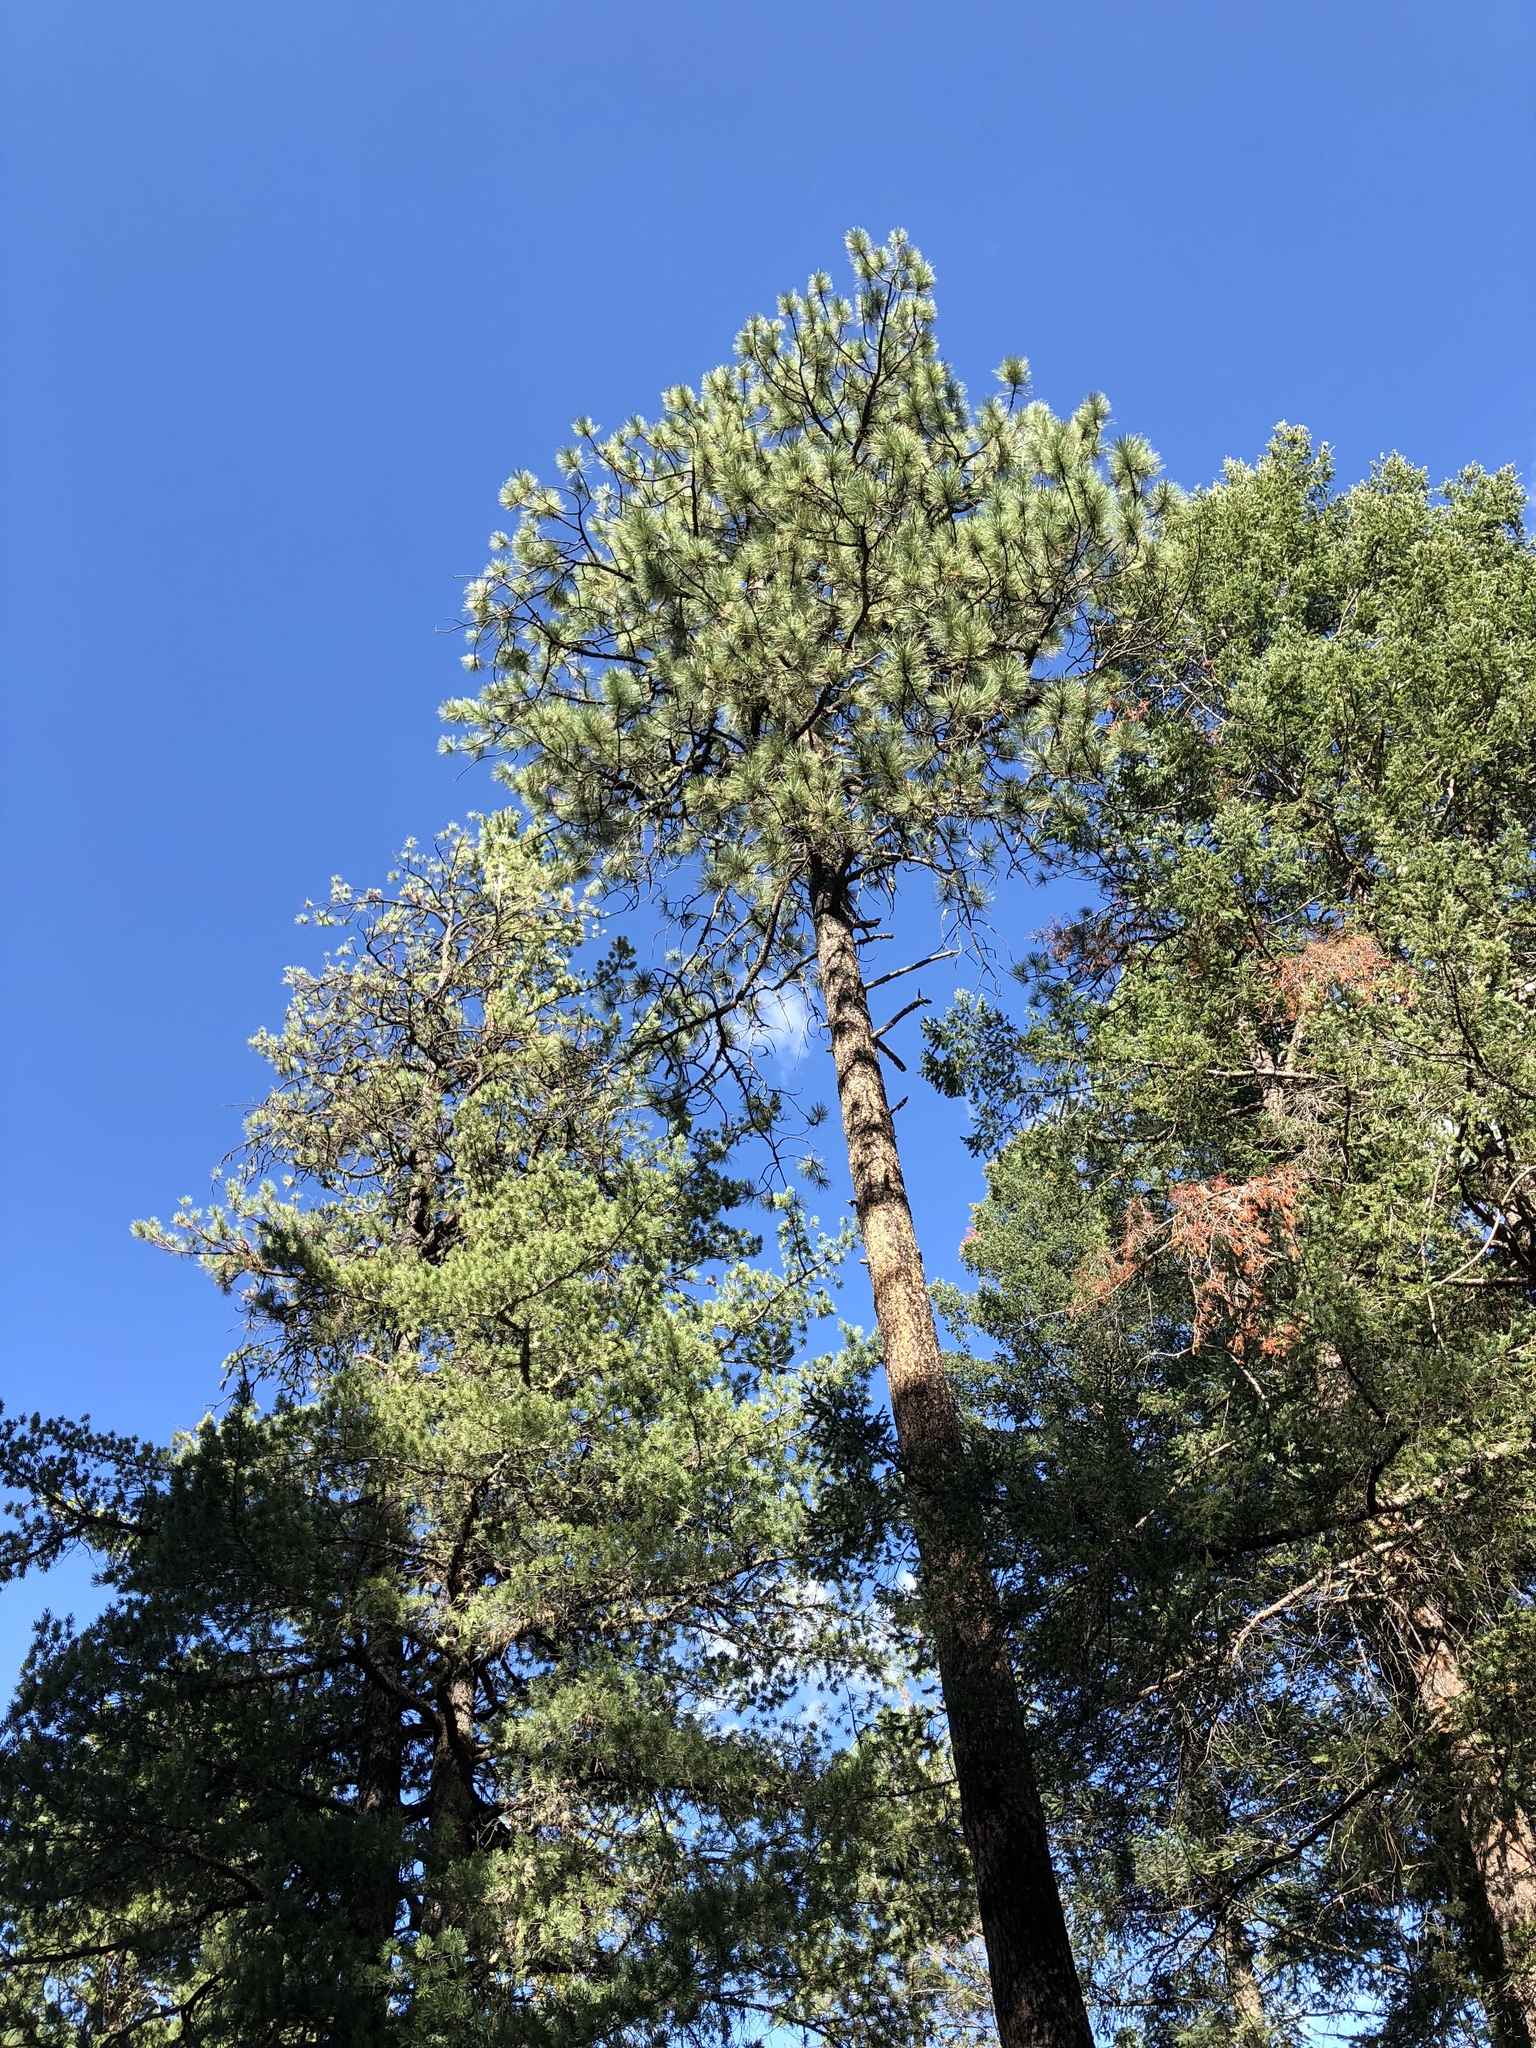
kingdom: Plantae
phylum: Tracheophyta
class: Pinopsida
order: Pinales
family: Pinaceae
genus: Pinus
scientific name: Pinus ponderosa
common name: Western yellow-pine
